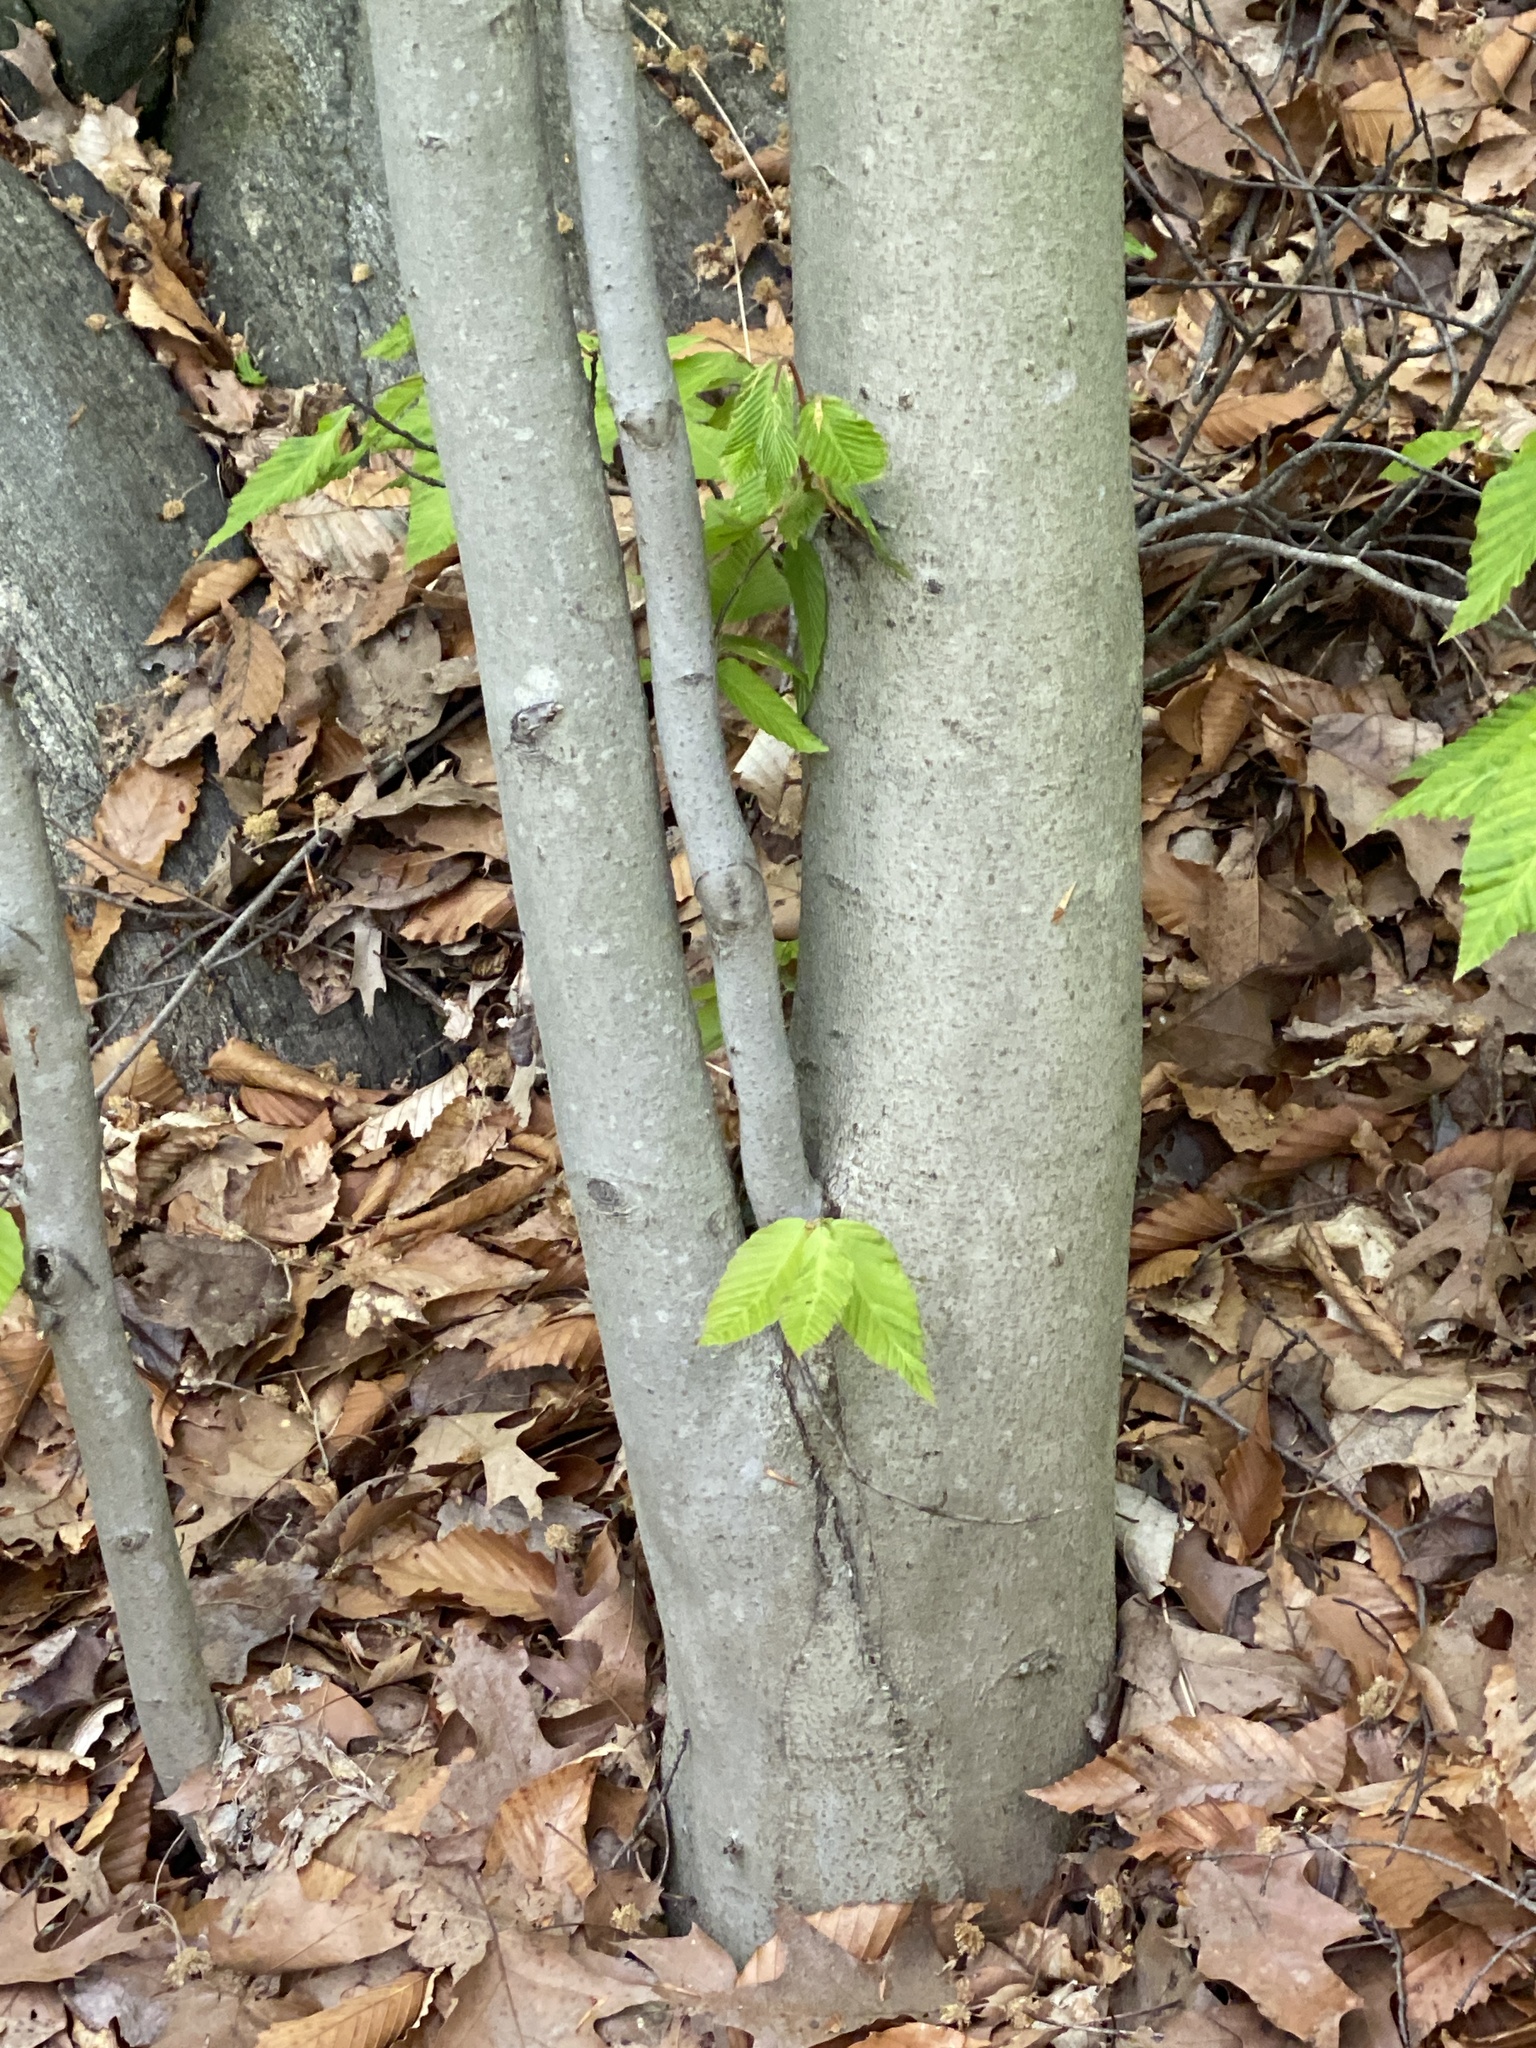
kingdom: Plantae
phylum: Tracheophyta
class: Magnoliopsida
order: Fagales
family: Fagaceae
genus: Fagus
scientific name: Fagus grandifolia
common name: American beech
